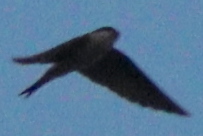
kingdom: Animalia
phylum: Chordata
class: Aves
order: Passeriformes
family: Hirundinidae
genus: Delichon
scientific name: Delichon urbicum
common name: Common house martin
